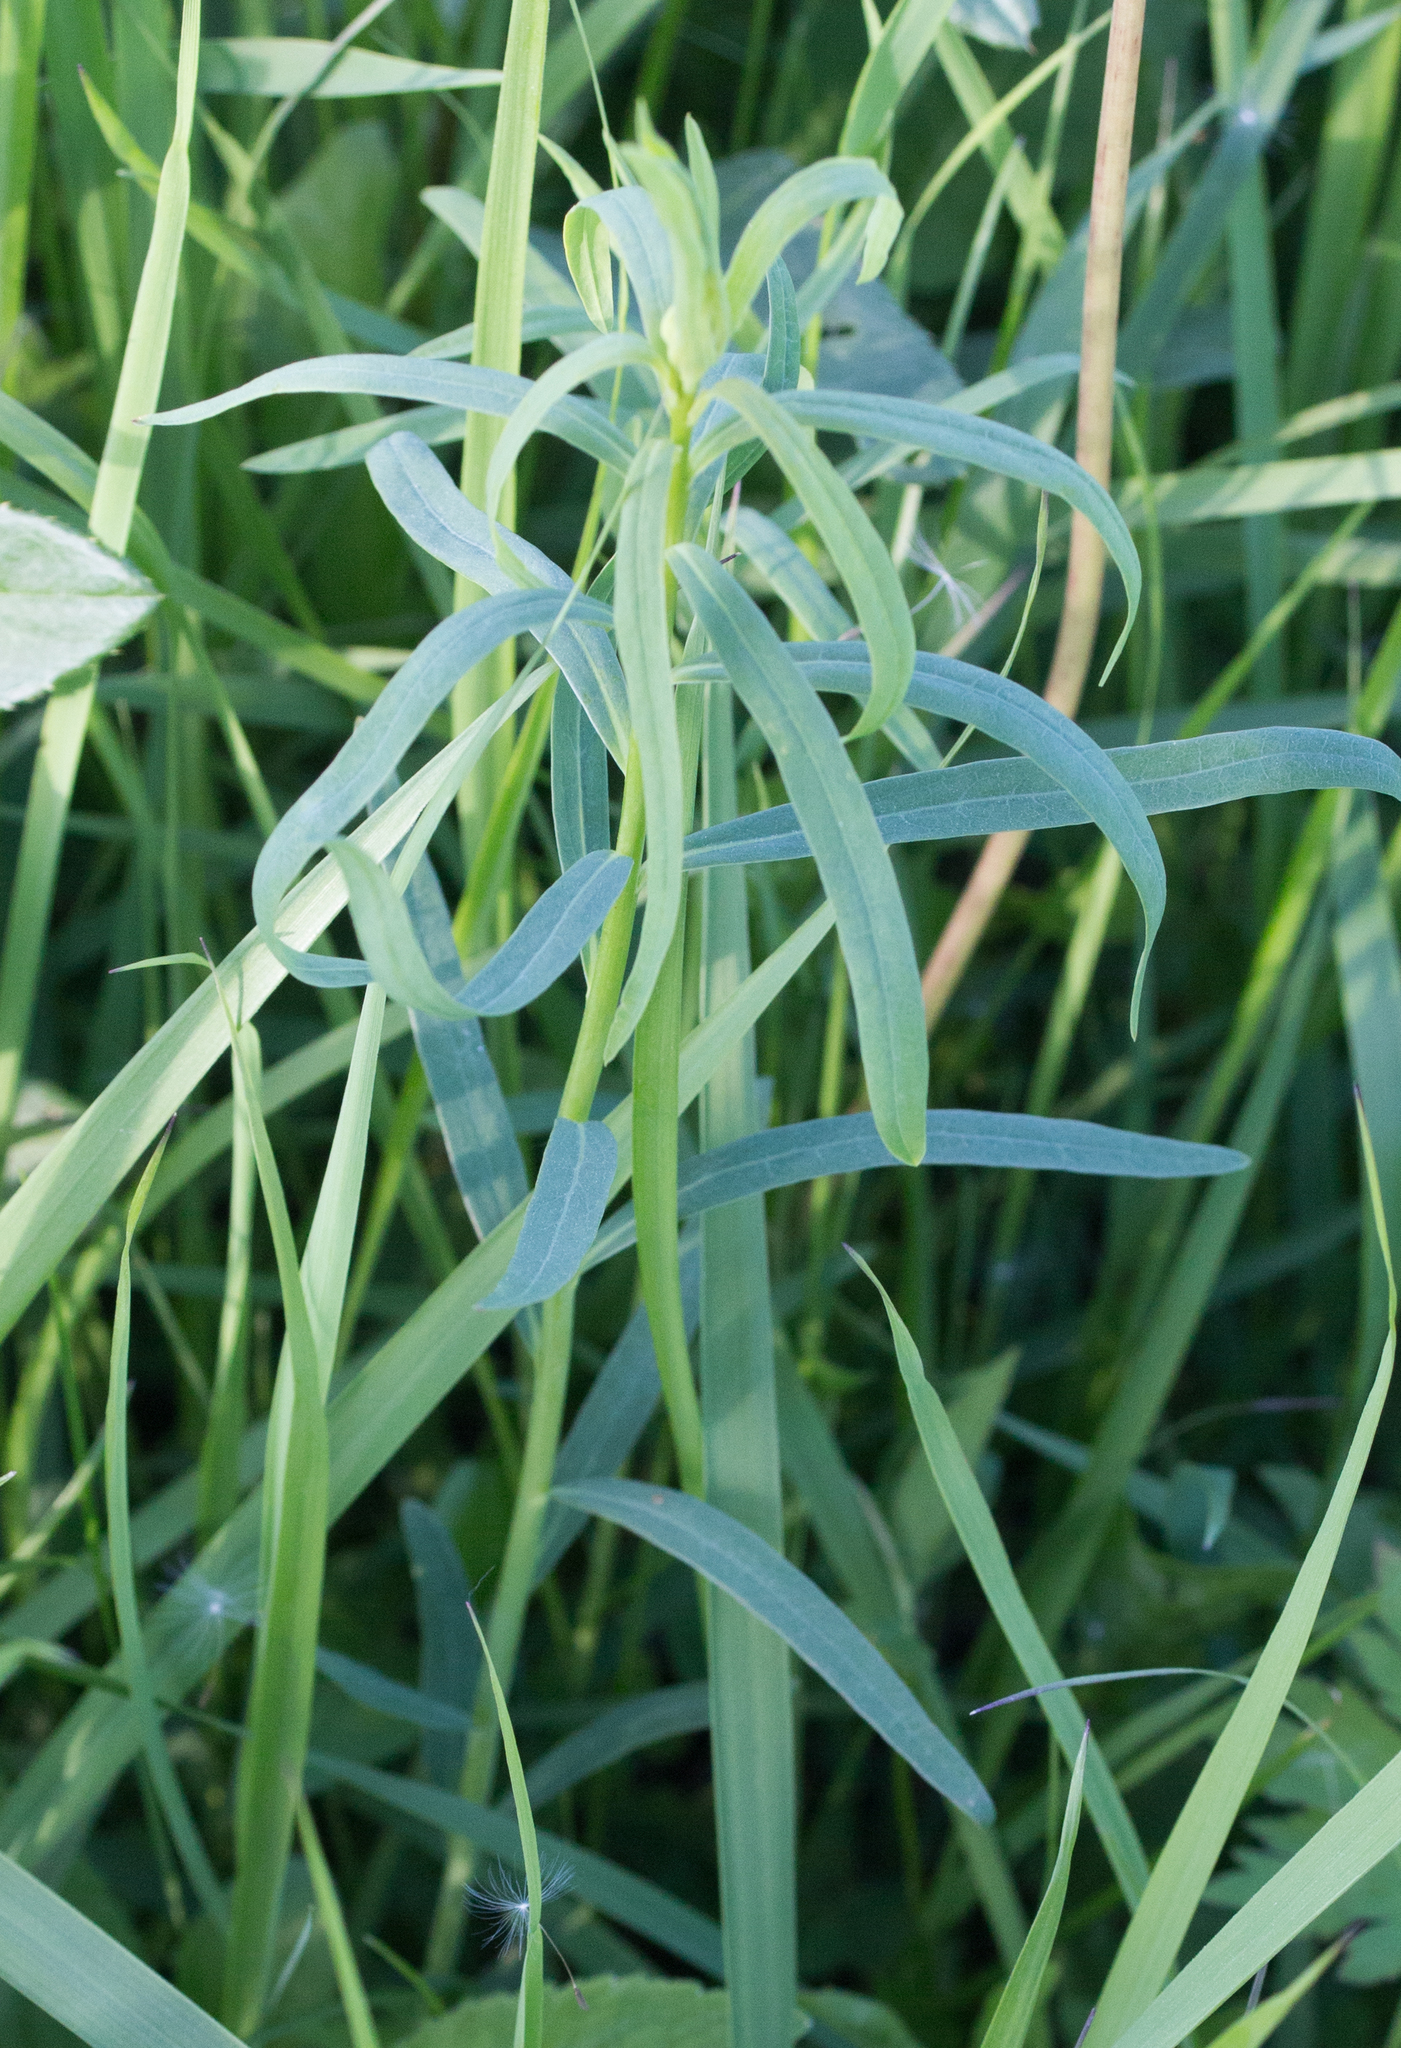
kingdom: Plantae
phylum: Tracheophyta
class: Magnoliopsida
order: Malpighiales
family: Euphorbiaceae
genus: Euphorbia
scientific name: Euphorbia virgata
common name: Leafy spurge
